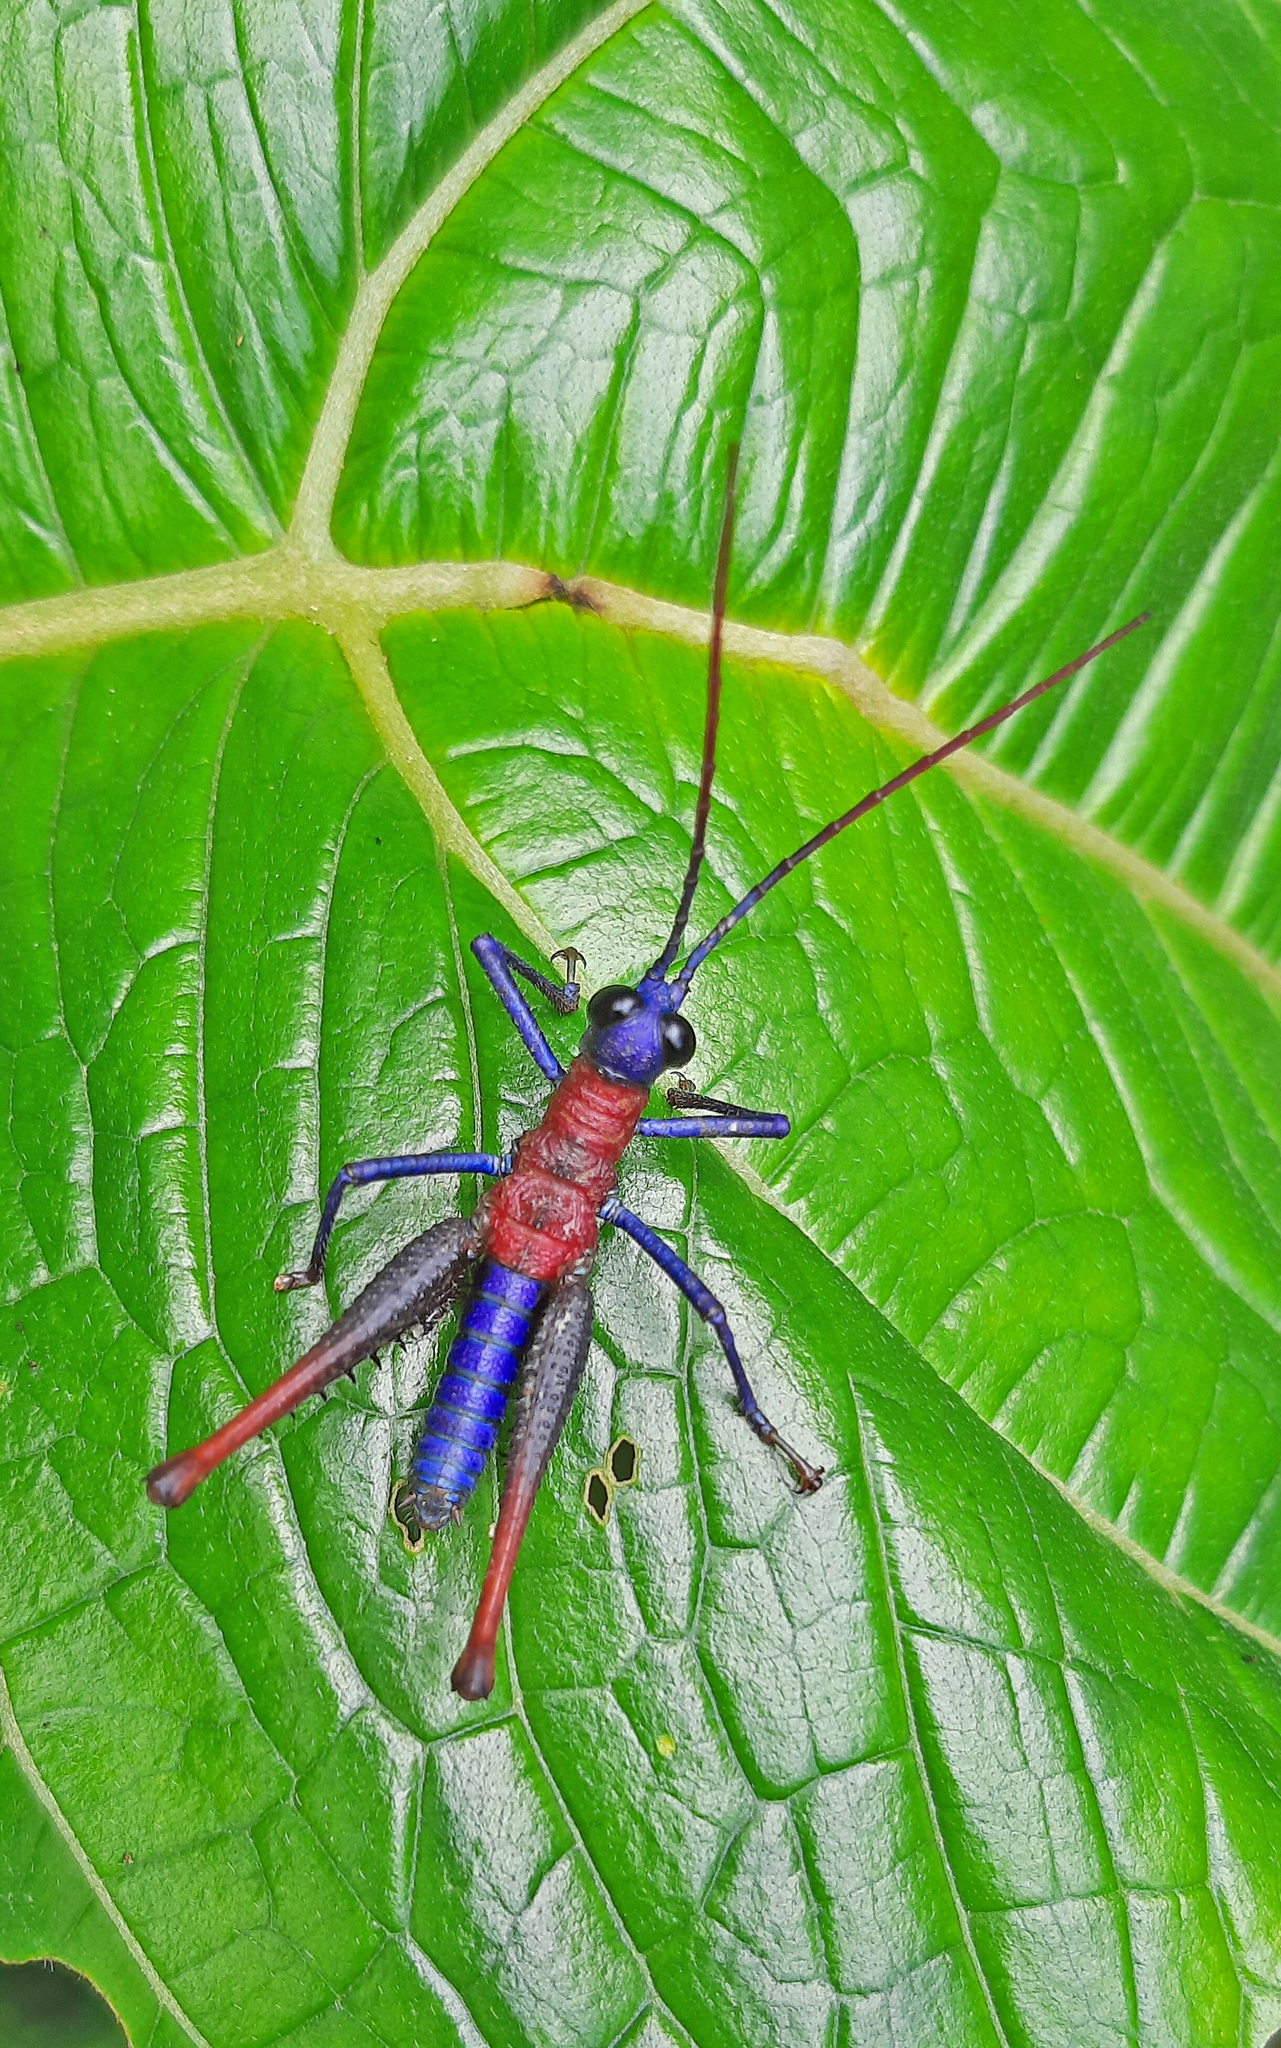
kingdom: Animalia
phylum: Arthropoda
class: Insecta
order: Orthoptera
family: Acrididae
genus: Opaon
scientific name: Opaon varicolor
